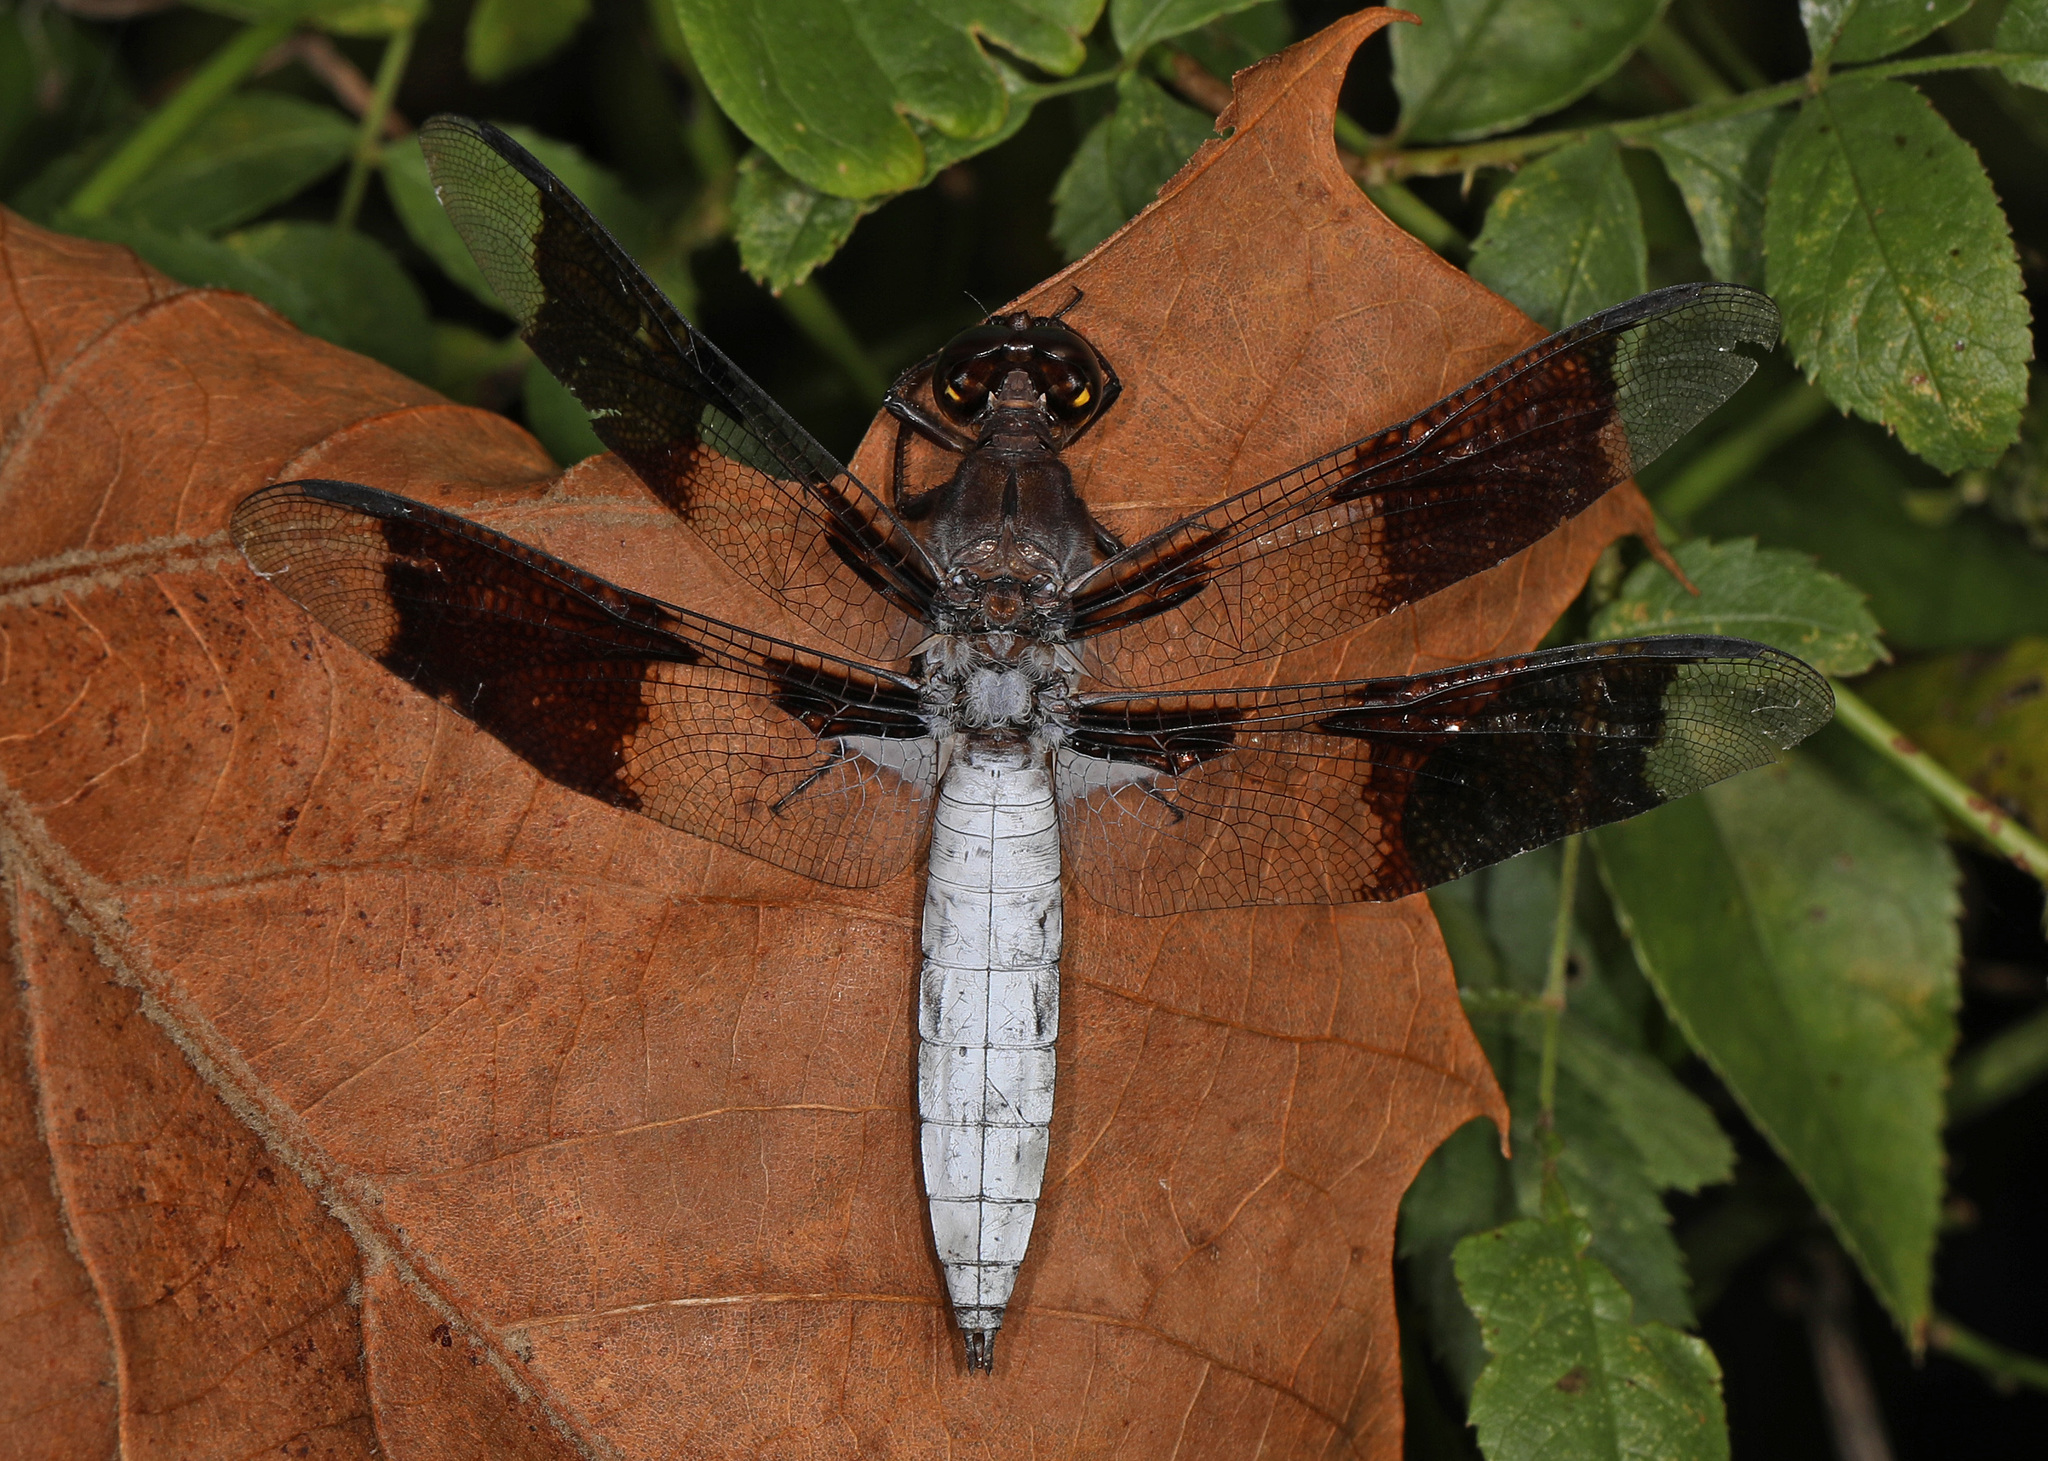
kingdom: Animalia
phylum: Arthropoda
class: Insecta
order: Odonata
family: Libellulidae
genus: Plathemis
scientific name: Plathemis lydia
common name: Common whitetail
